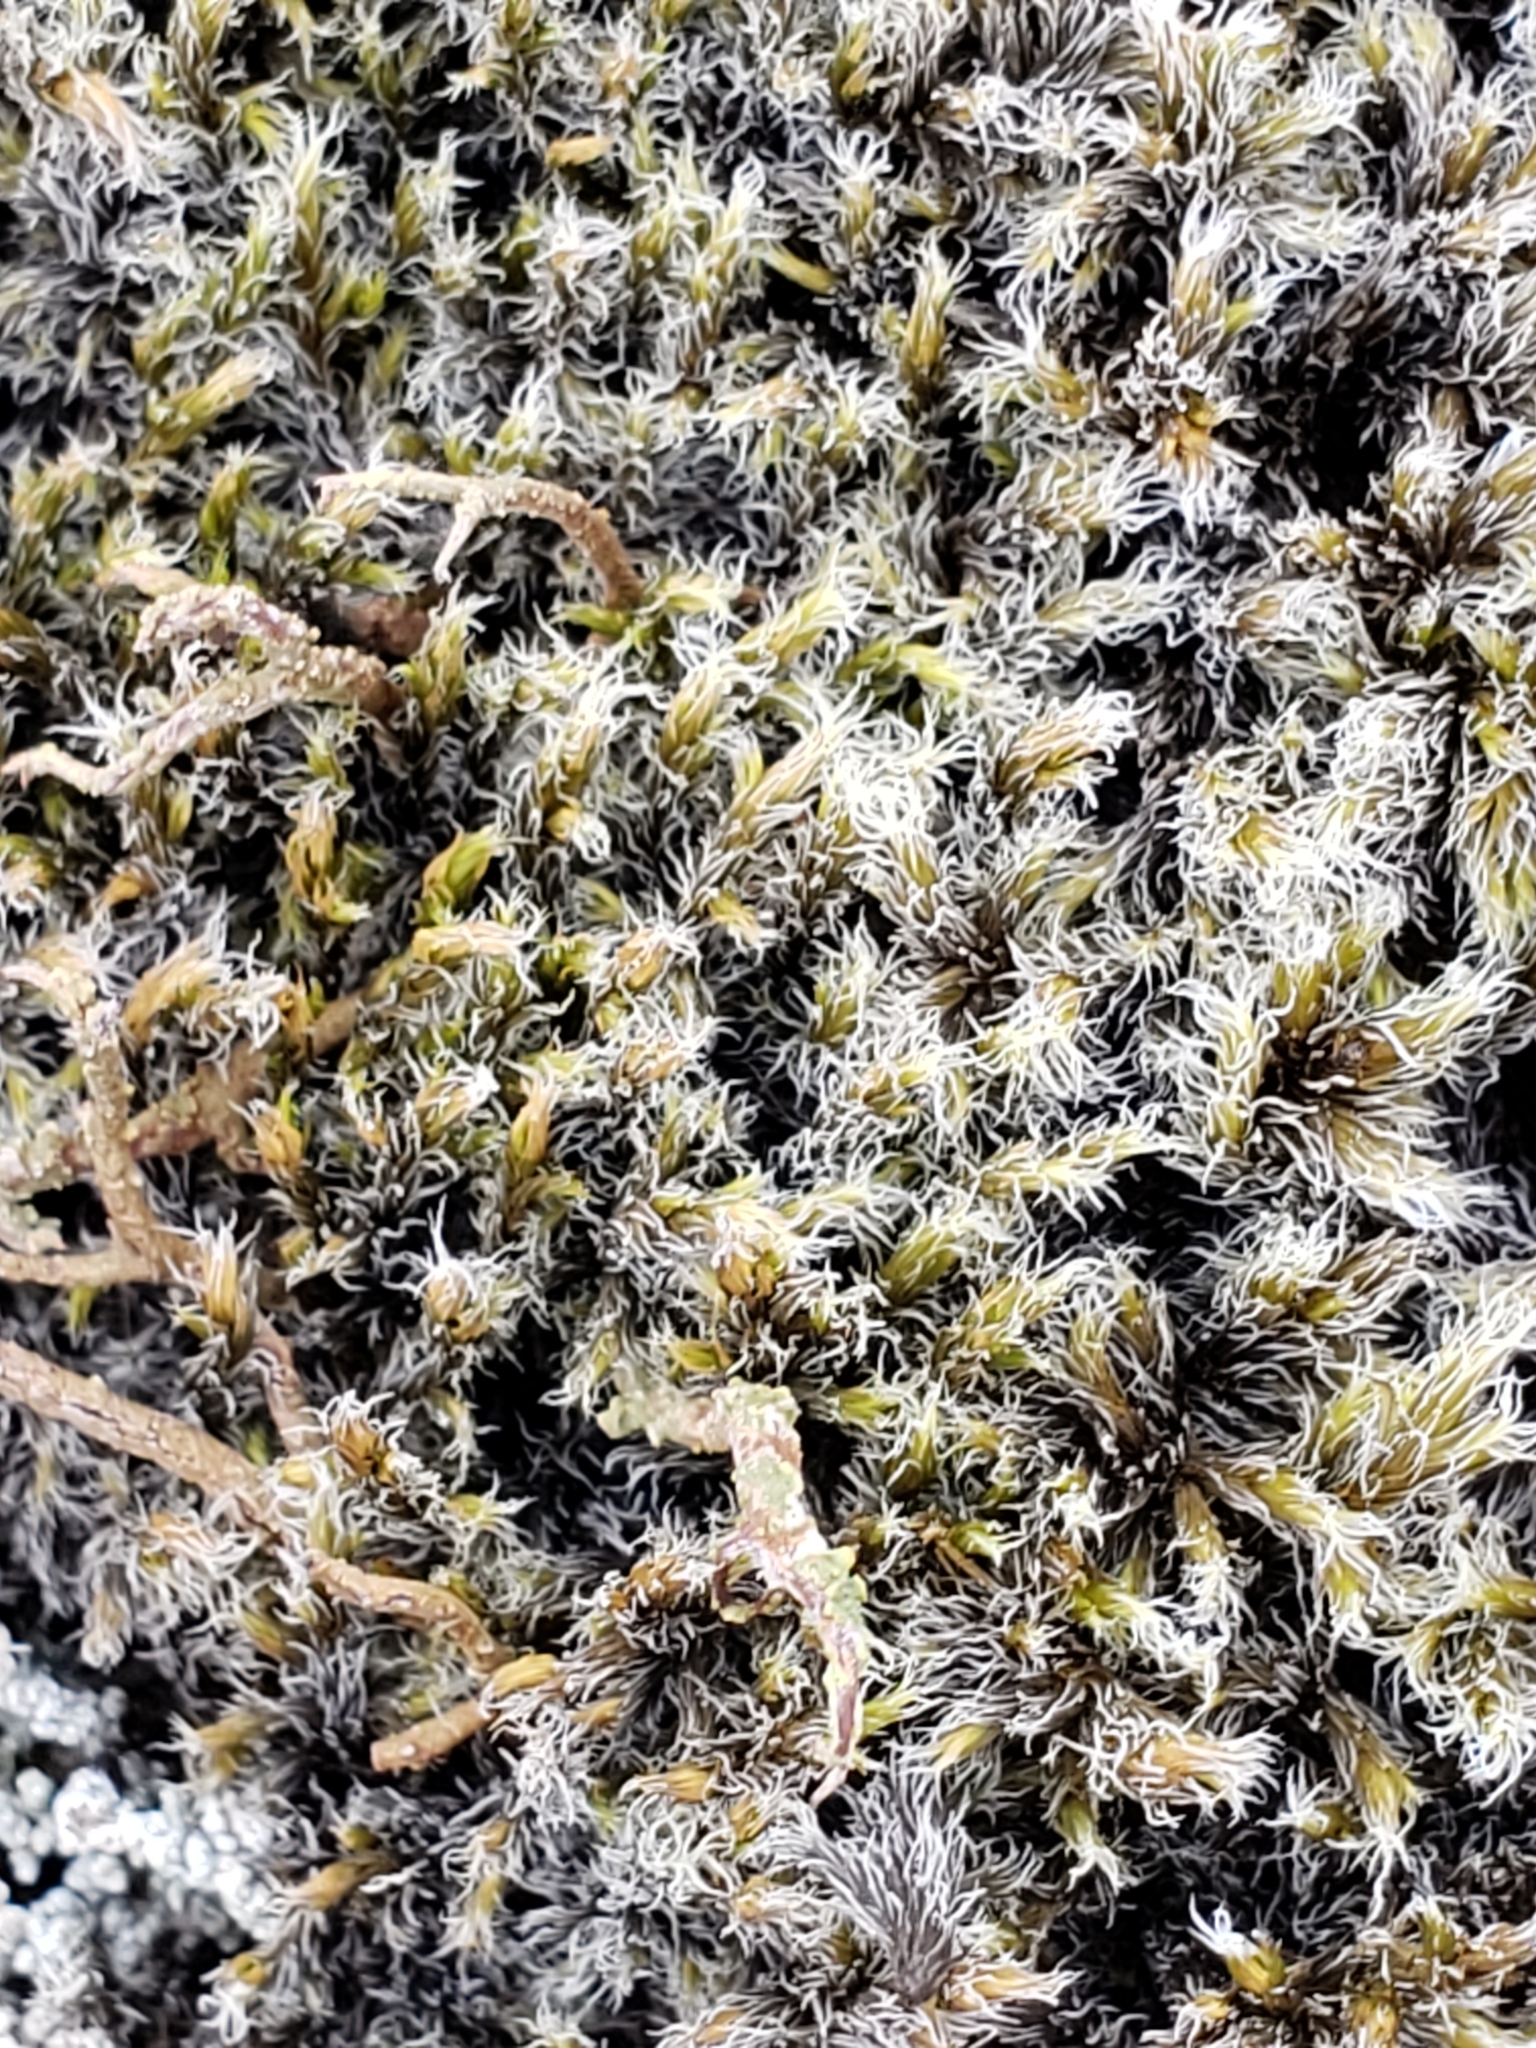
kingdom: Plantae
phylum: Bryophyta
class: Bryopsida
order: Grimmiales
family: Grimmiaceae
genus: Racomitrium
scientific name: Racomitrium lanuginosum
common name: Hoary rock moss
